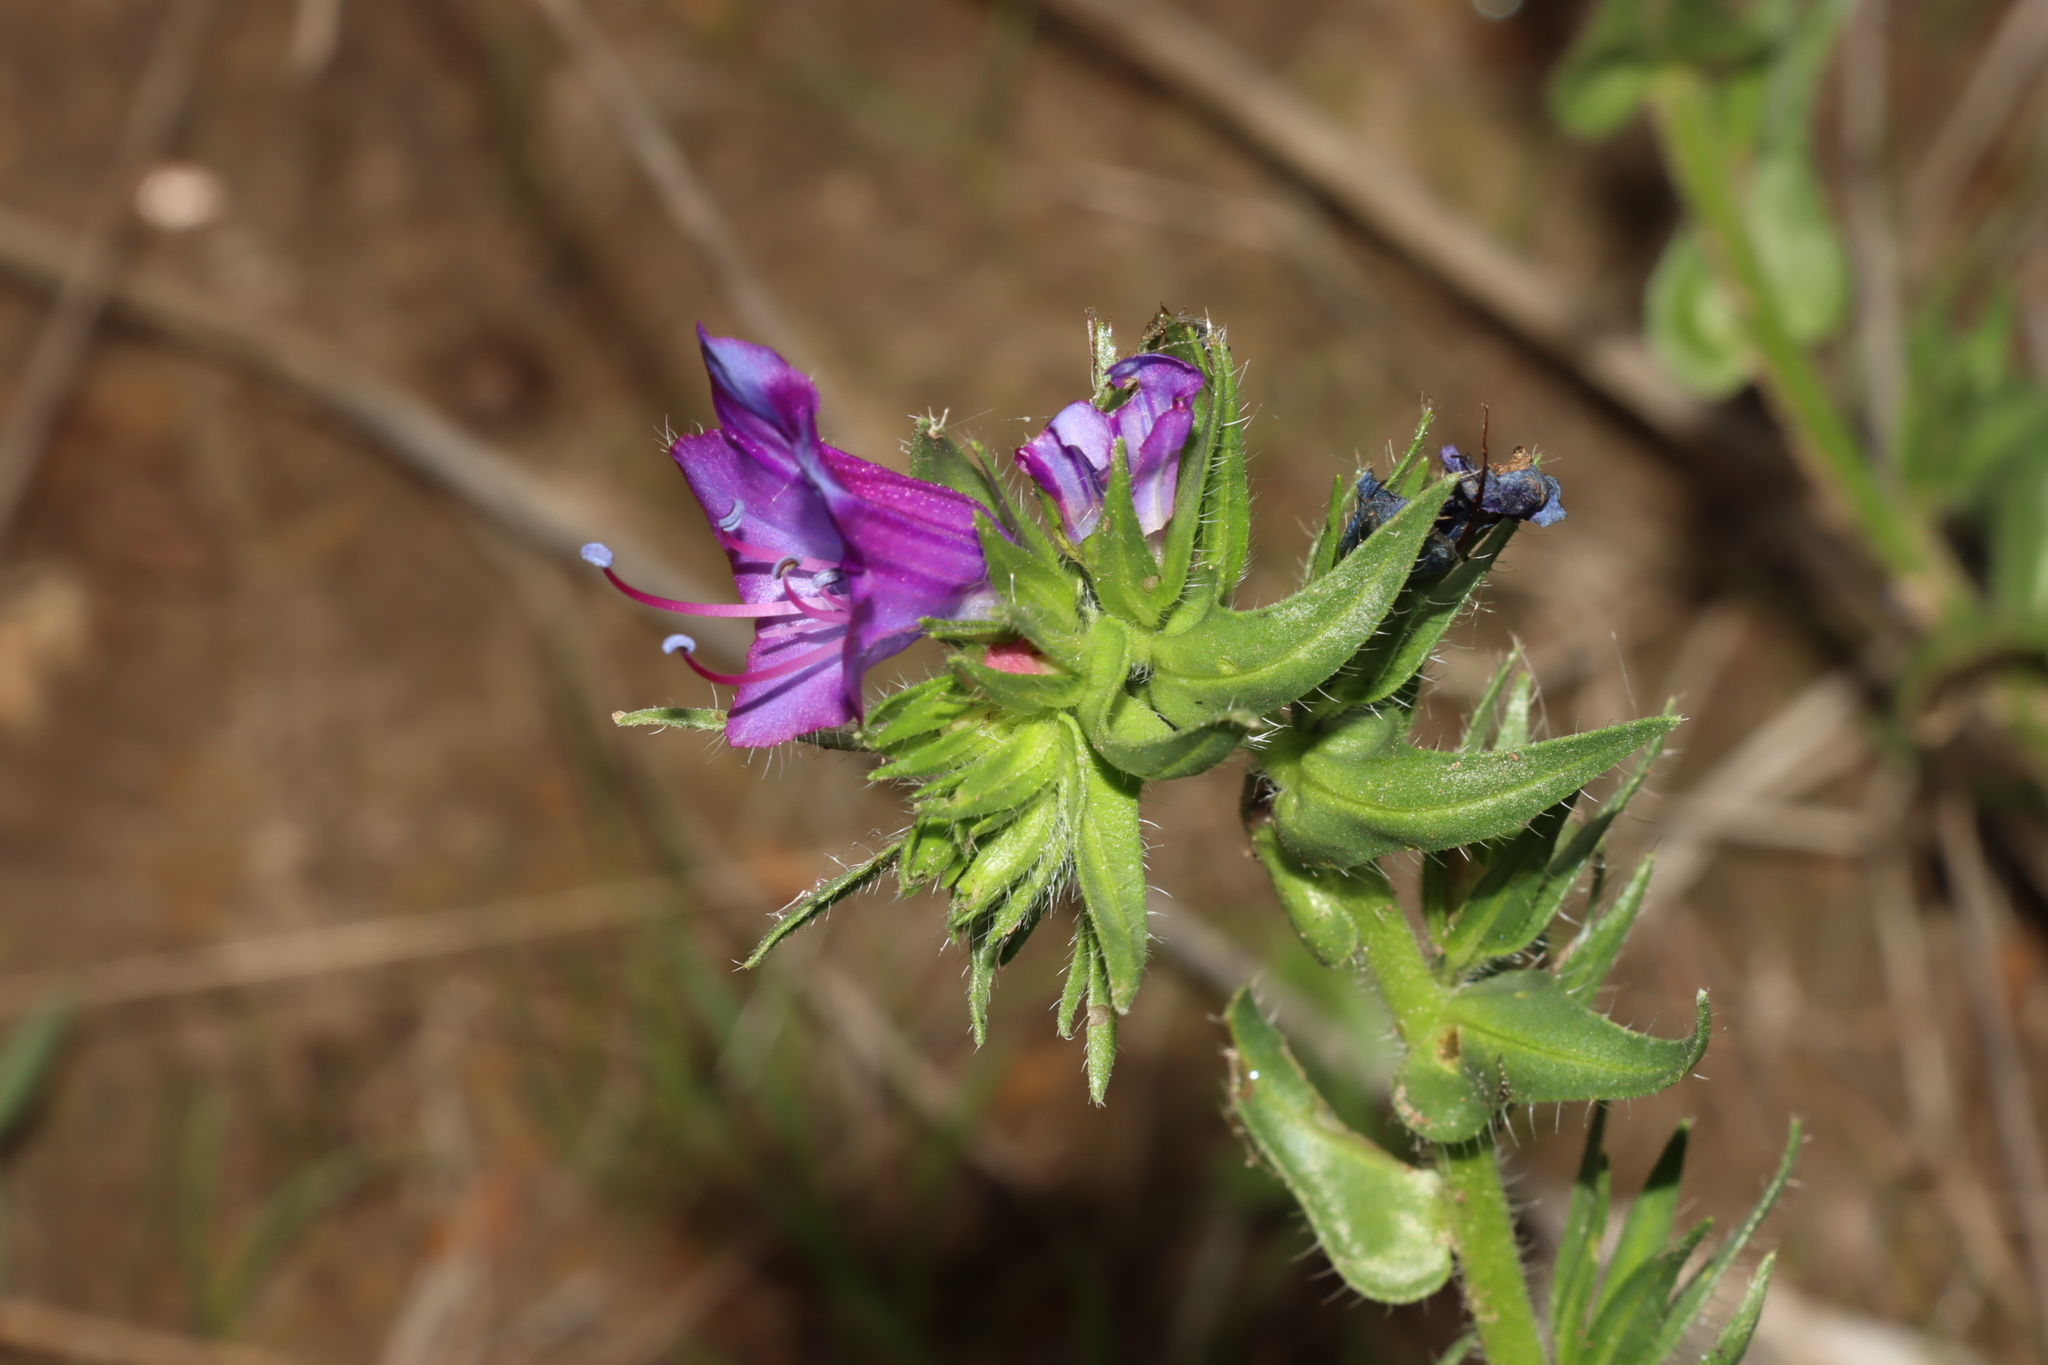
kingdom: Plantae
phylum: Tracheophyta
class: Magnoliopsida
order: Boraginales
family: Boraginaceae
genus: Echium
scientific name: Echium plantagineum
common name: Purple viper's-bugloss
